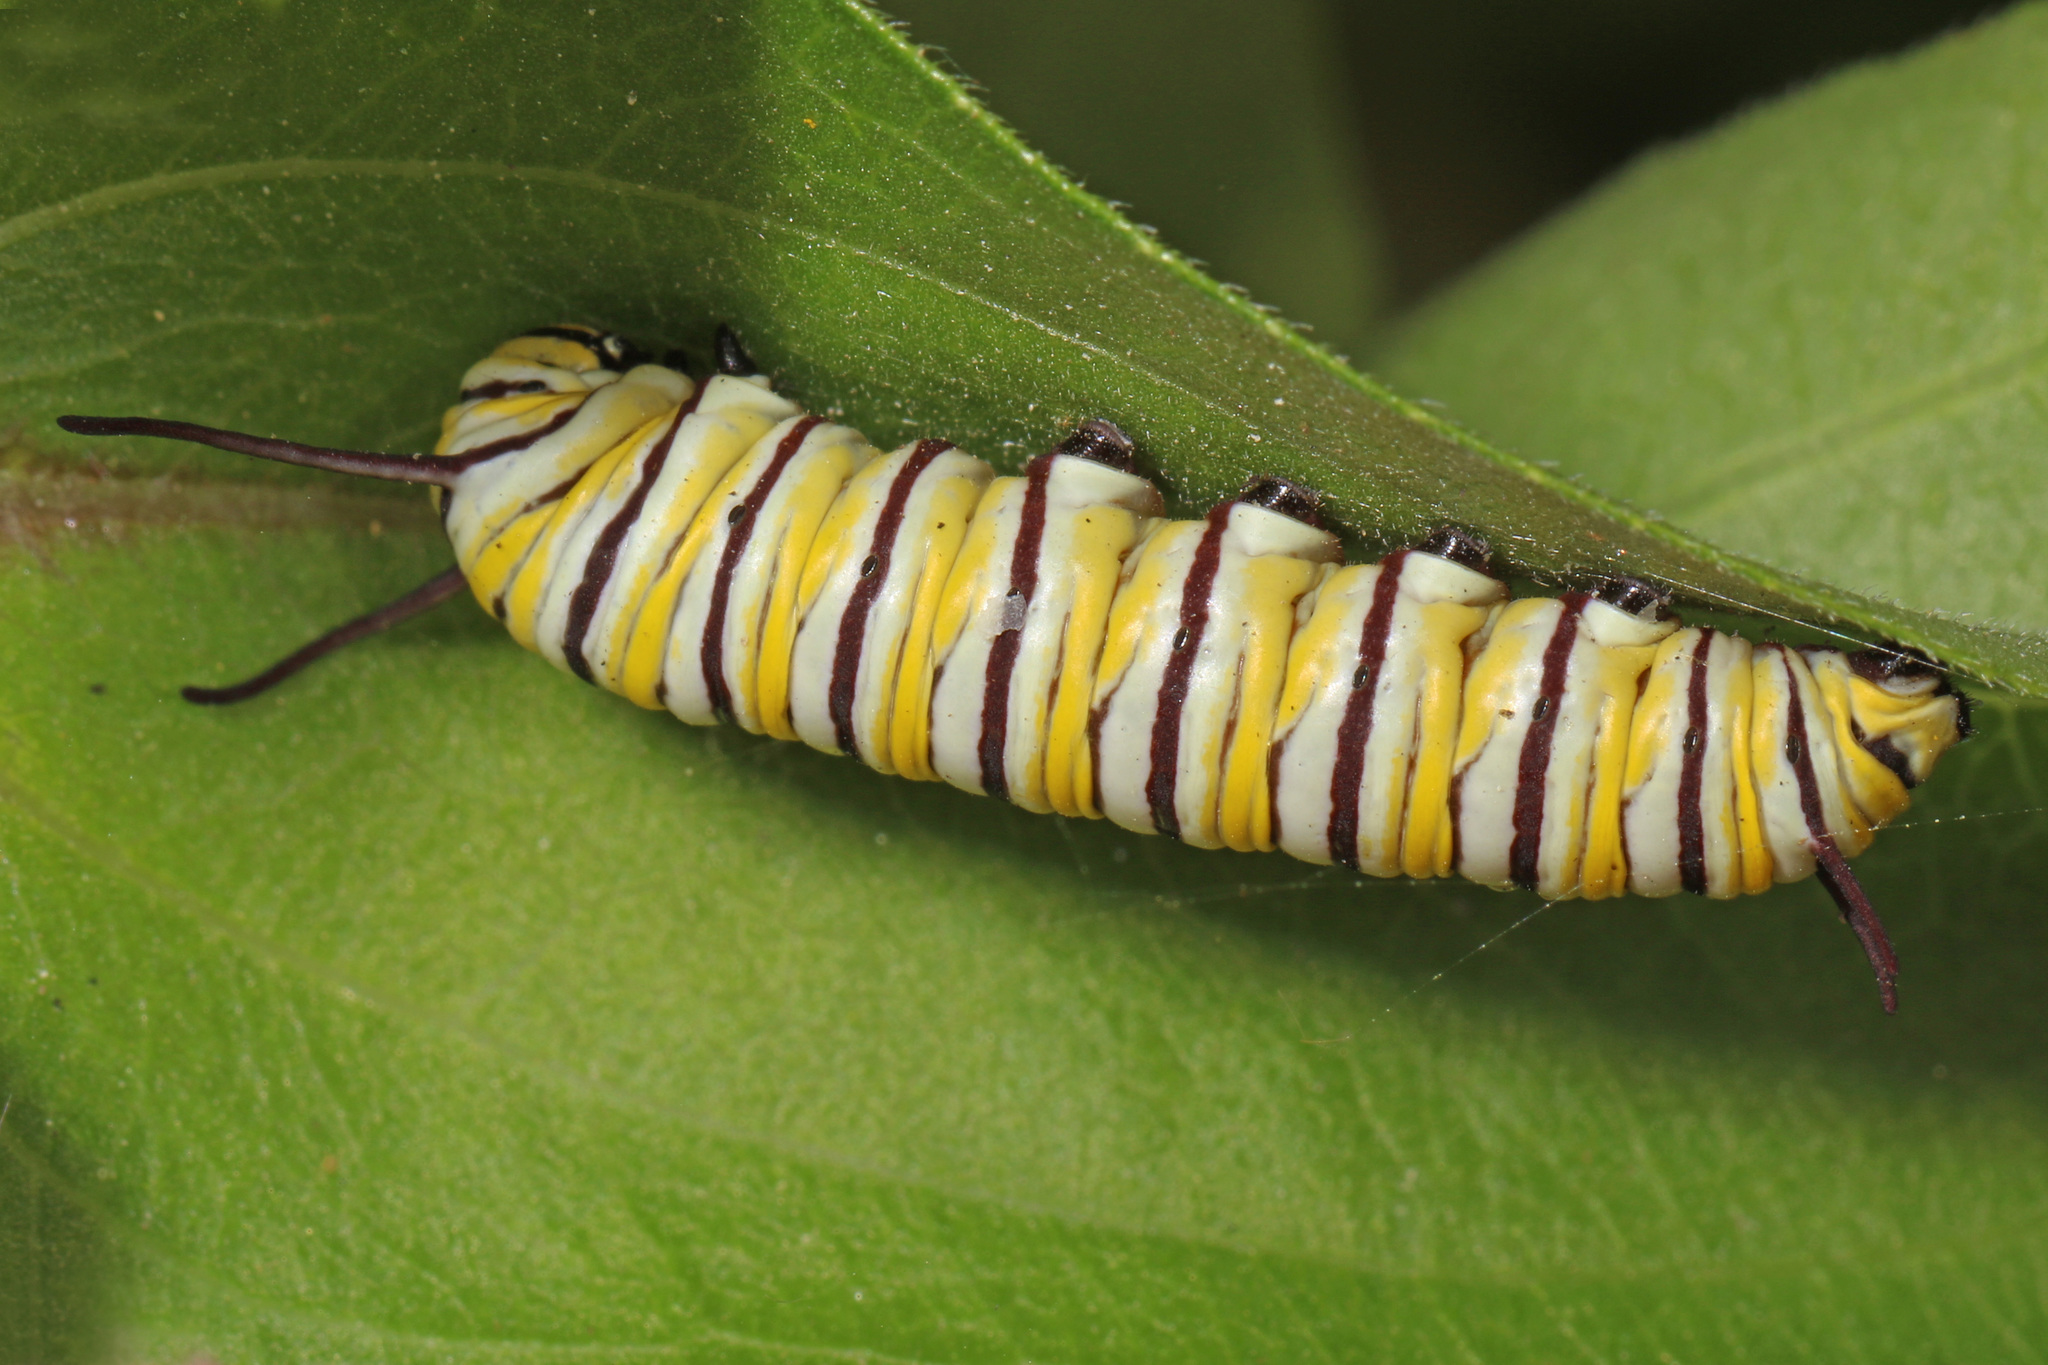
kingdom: Animalia
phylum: Arthropoda
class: Insecta
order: Lepidoptera
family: Nymphalidae
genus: Danaus
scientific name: Danaus plexippus
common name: Monarch
